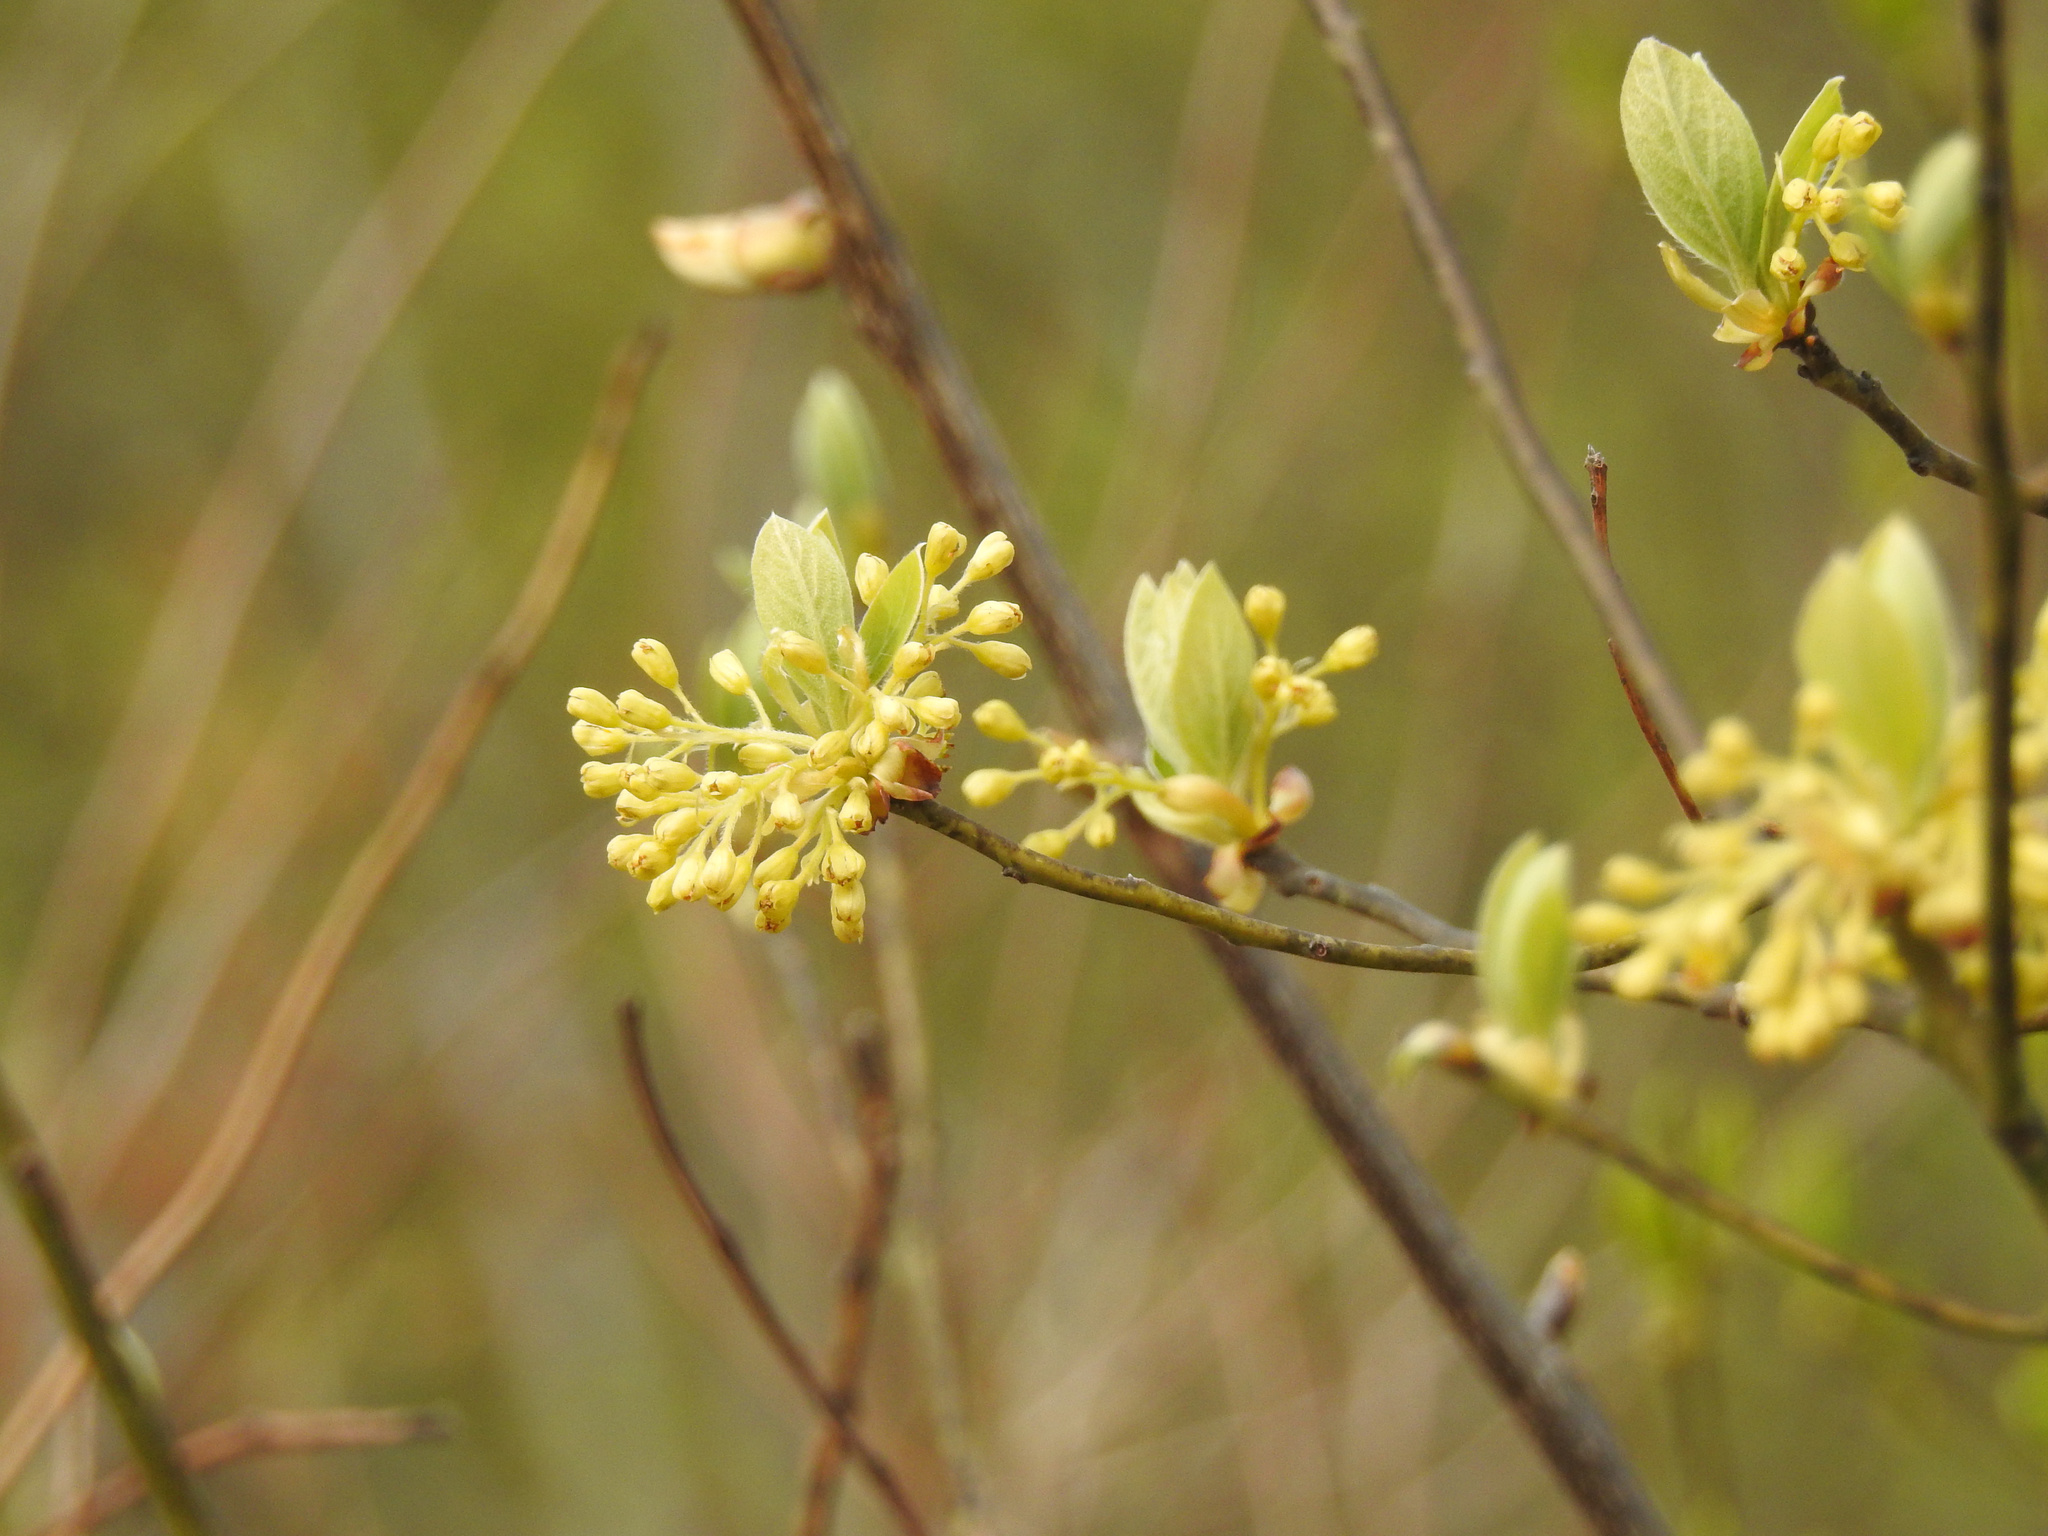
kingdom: Plantae
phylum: Tracheophyta
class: Magnoliopsida
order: Laurales
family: Lauraceae
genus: Sassafras
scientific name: Sassafras albidum
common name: Sassafras
